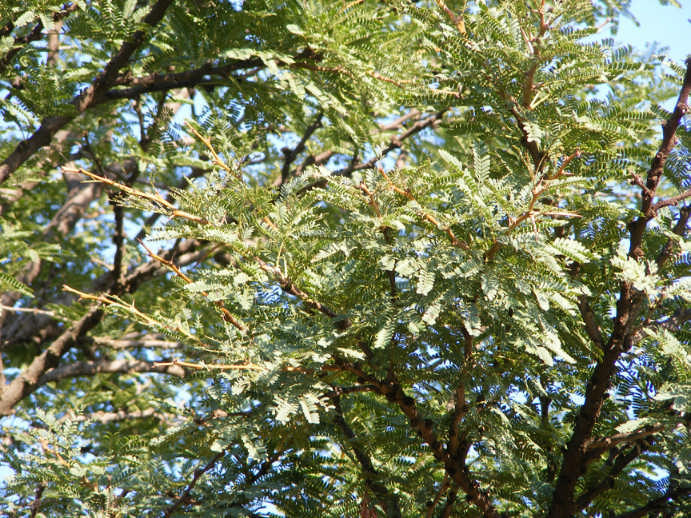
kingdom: Plantae
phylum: Tracheophyta
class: Magnoliopsida
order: Fabales
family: Fabaceae
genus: Vachellia
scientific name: Vachellia robusta
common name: Ankle thorn
